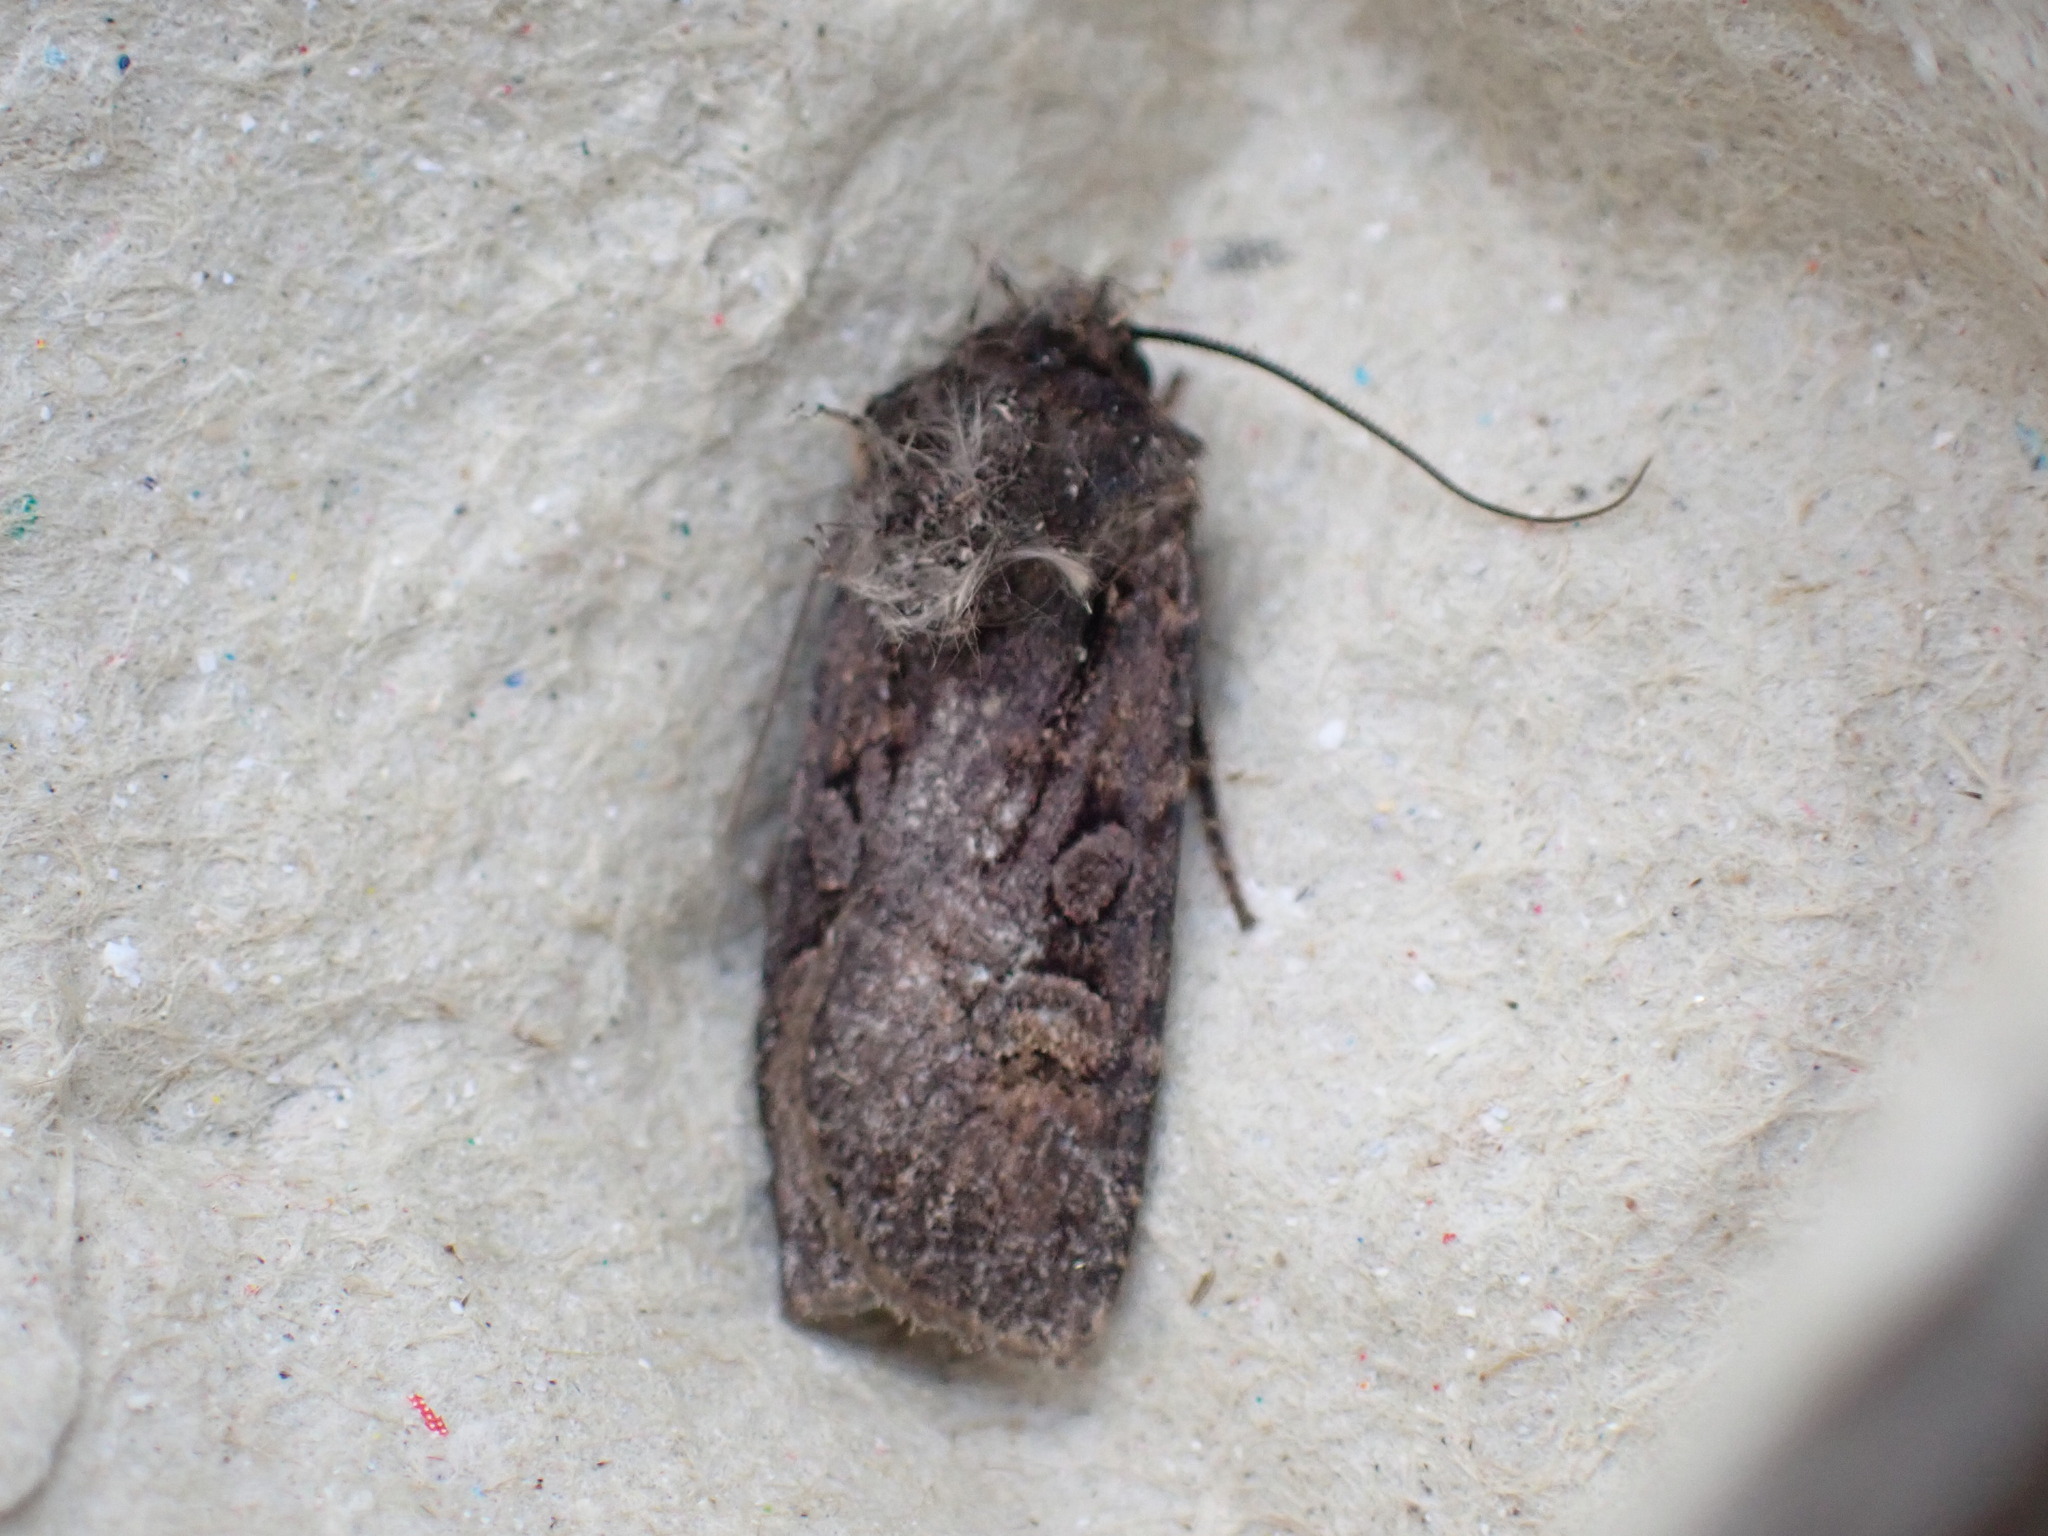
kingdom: Animalia
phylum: Arthropoda
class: Insecta
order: Lepidoptera
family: Noctuidae
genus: Euxoa
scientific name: Euxoa nigricans
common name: Garden dart
